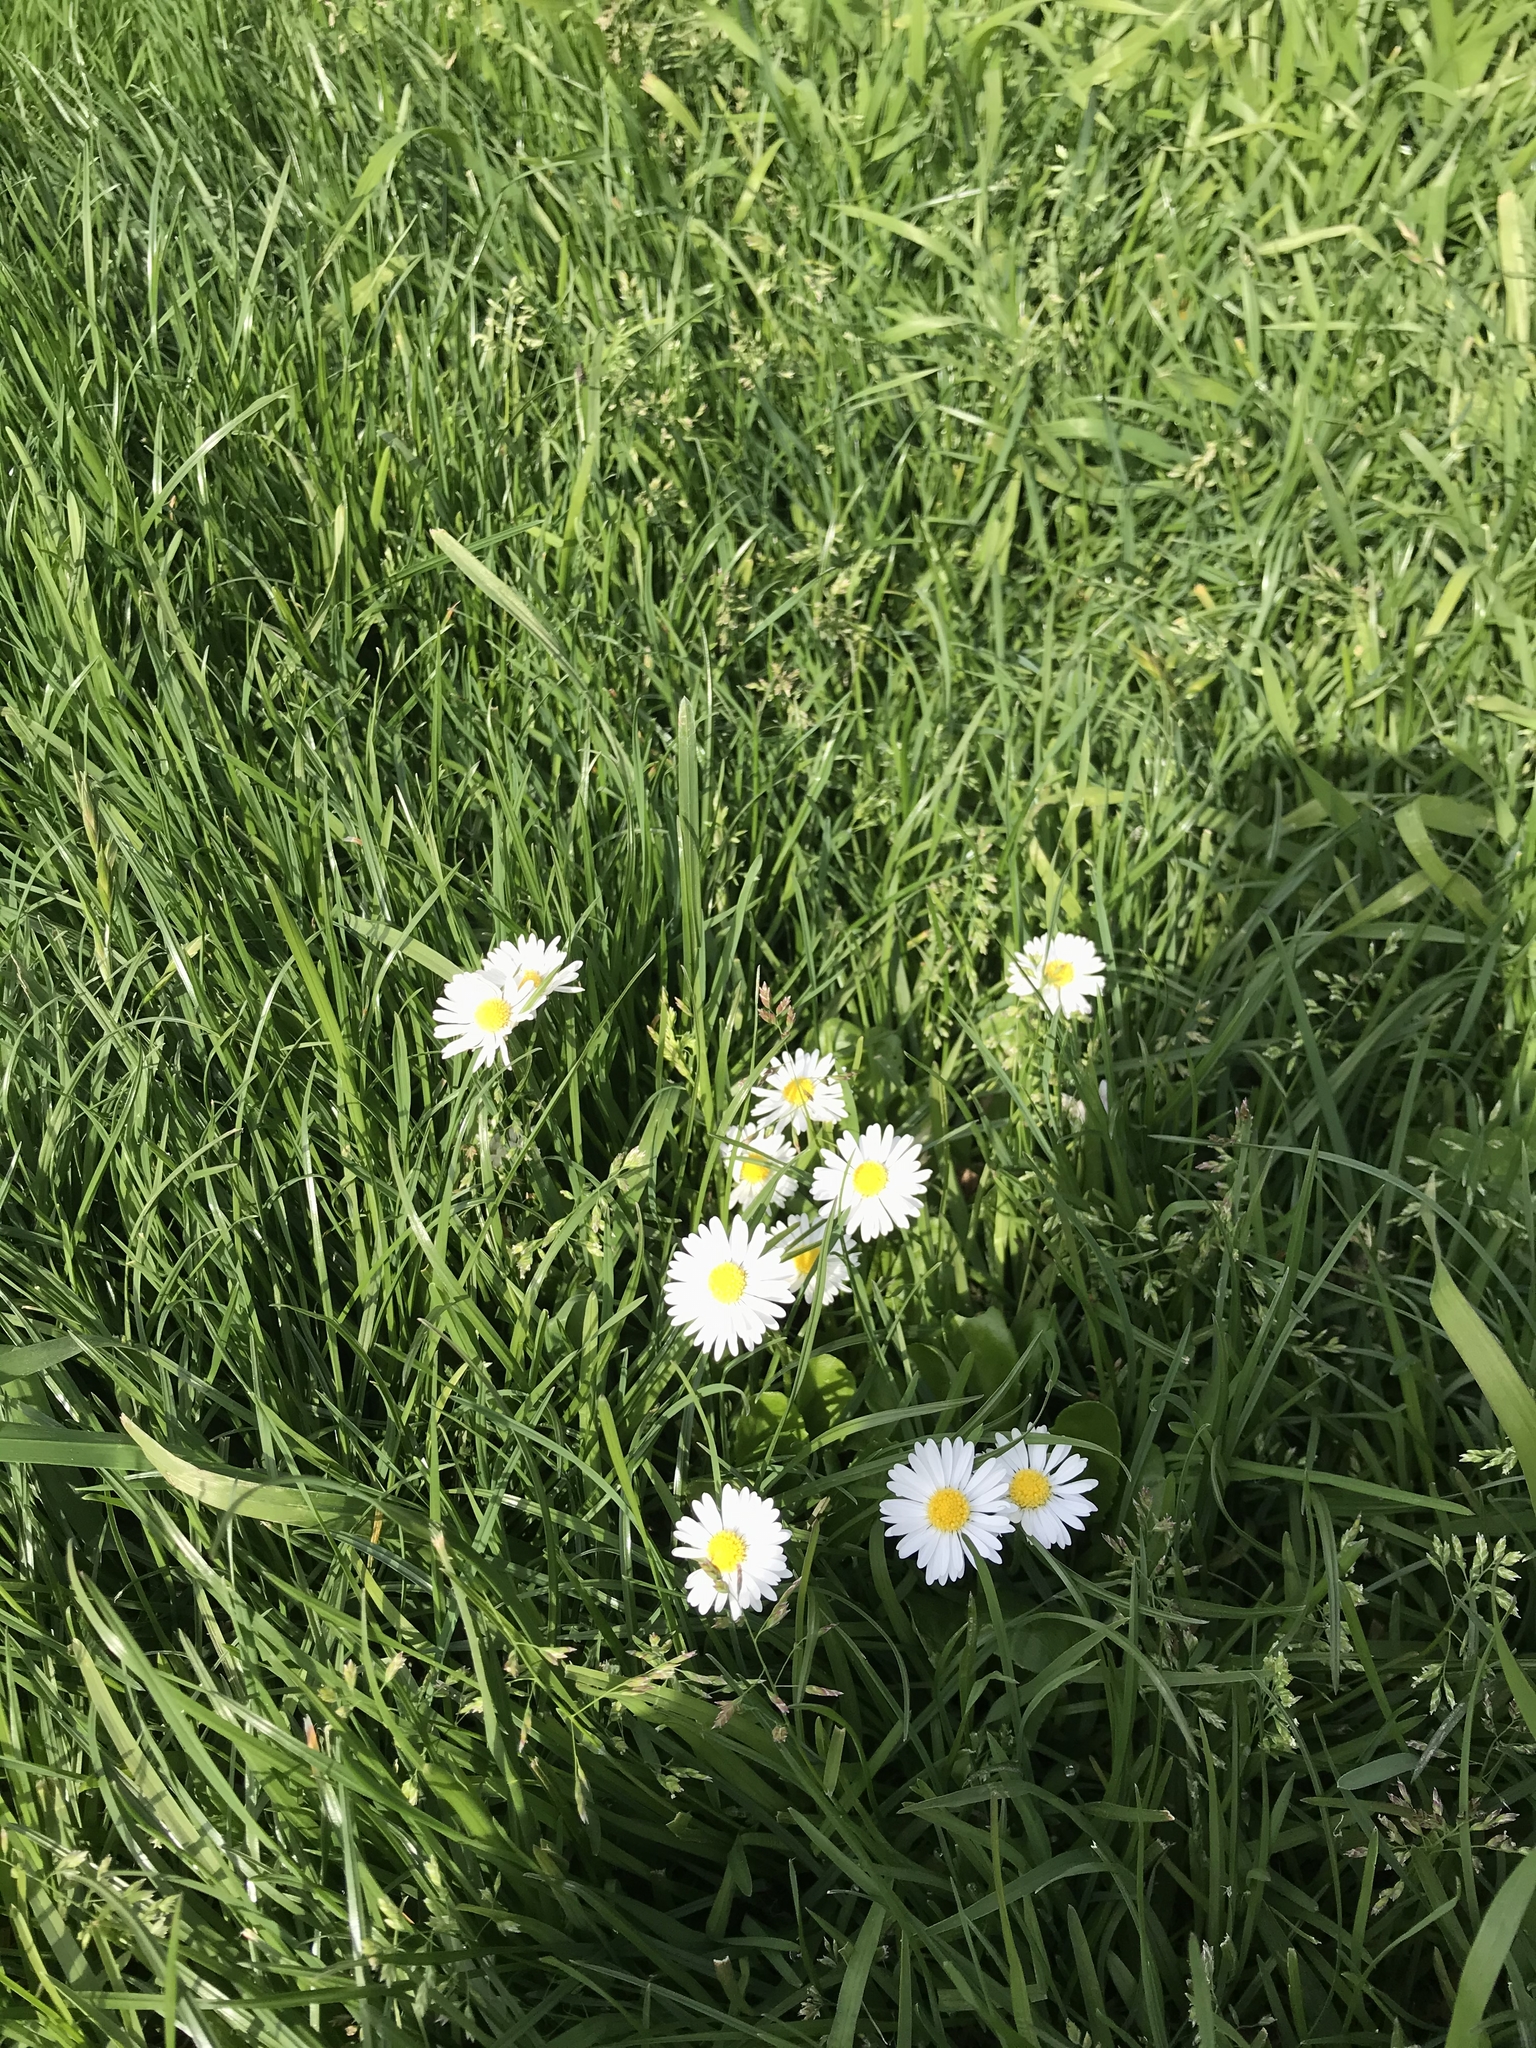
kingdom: Plantae
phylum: Tracheophyta
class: Magnoliopsida
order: Asterales
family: Asteraceae
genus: Bellis
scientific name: Bellis perennis
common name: Lawndaisy
